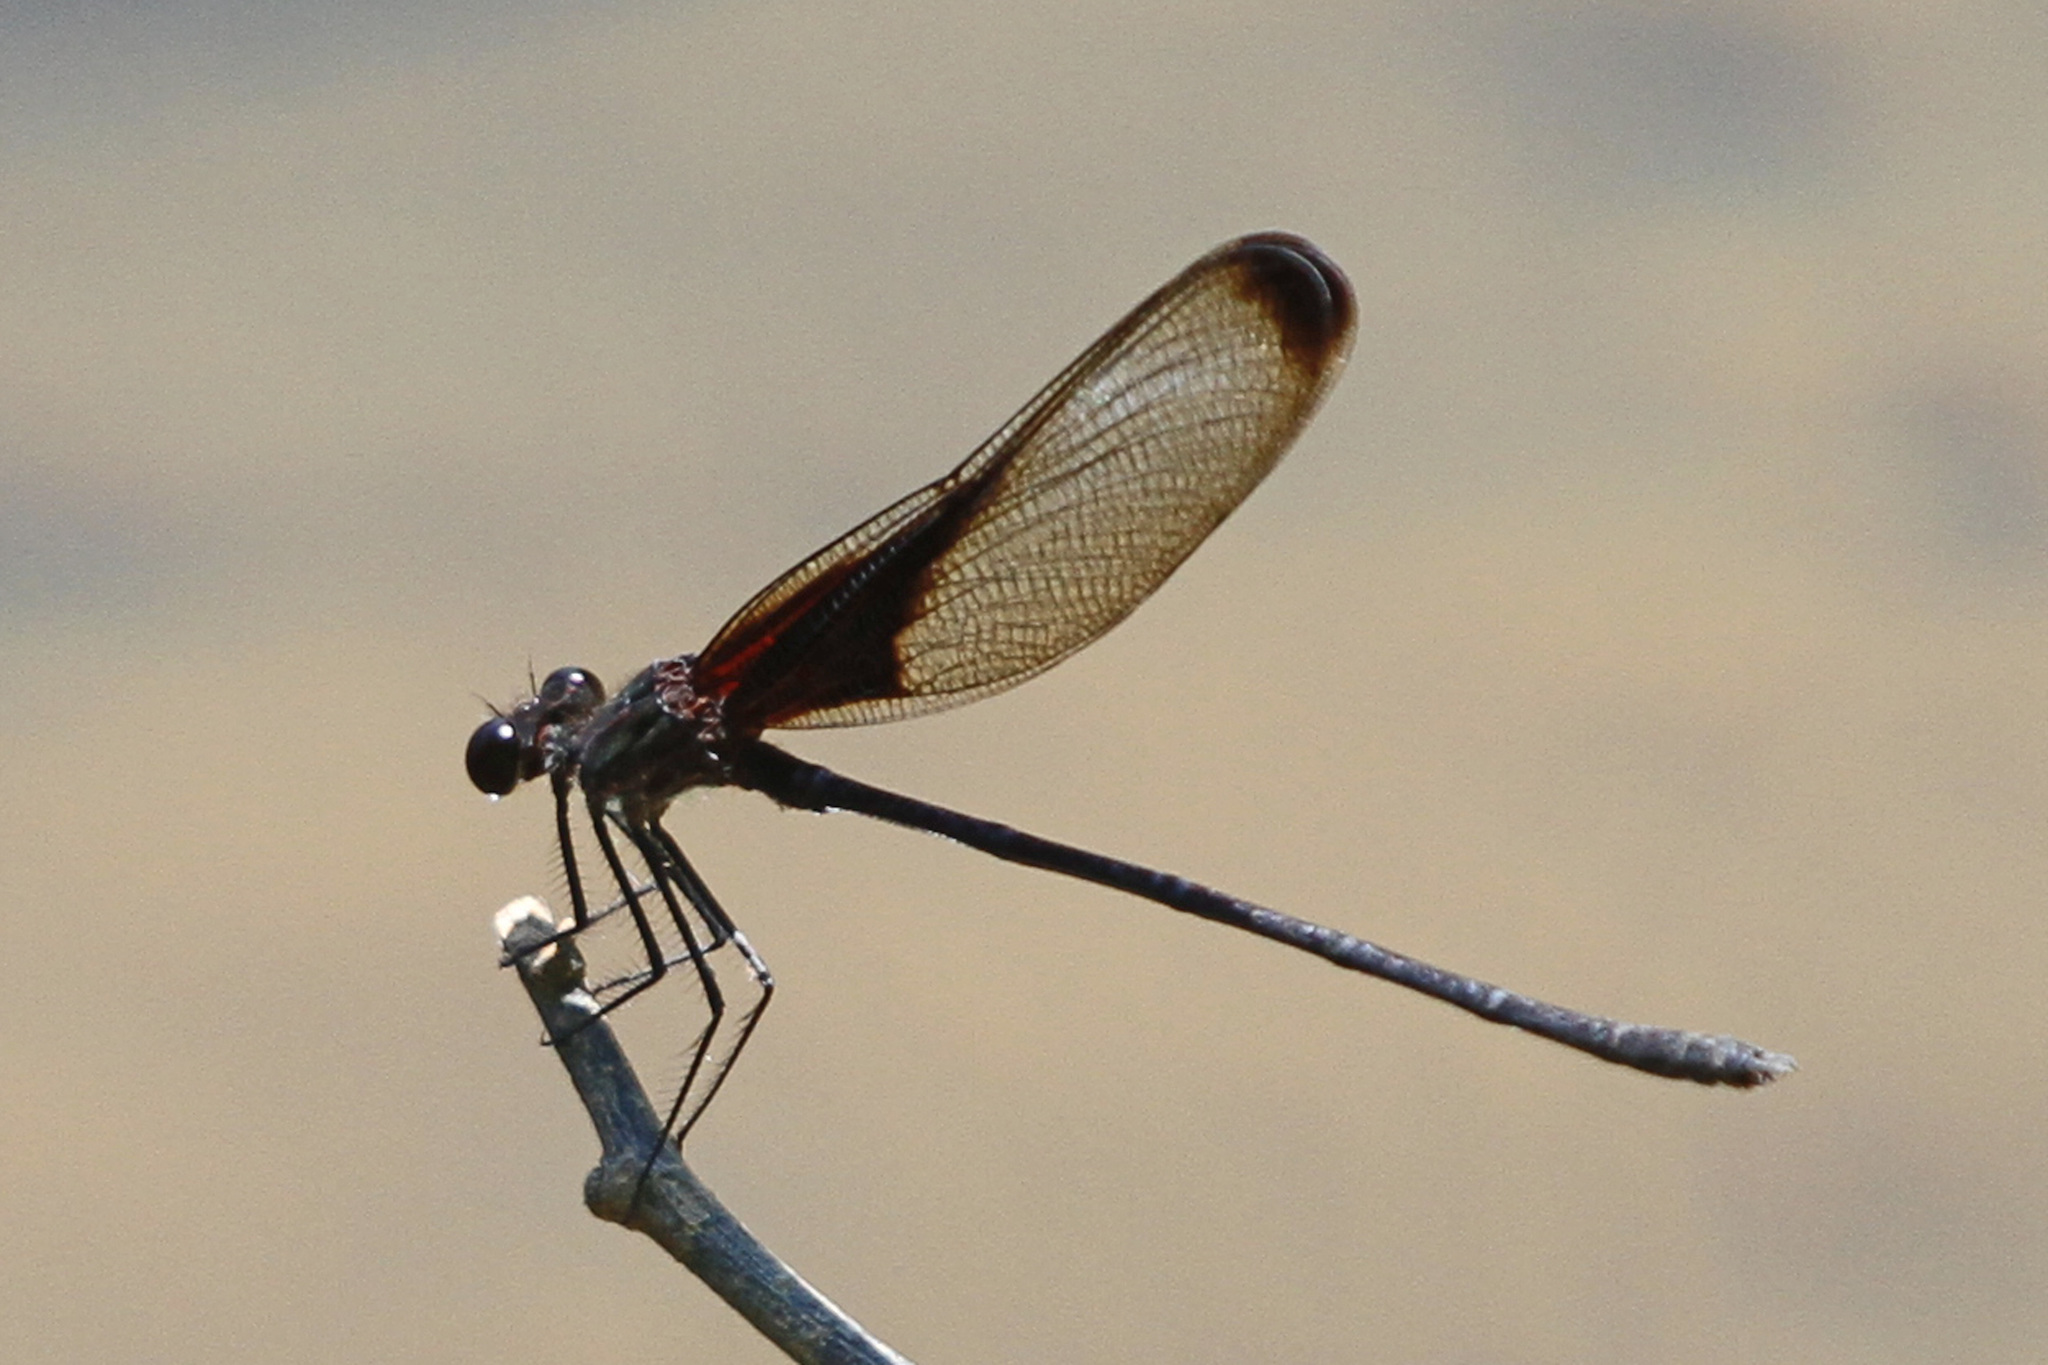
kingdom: Animalia
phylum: Arthropoda
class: Insecta
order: Odonata
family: Calopterygidae
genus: Hetaerina
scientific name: Hetaerina titia
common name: Smoky rubyspot
